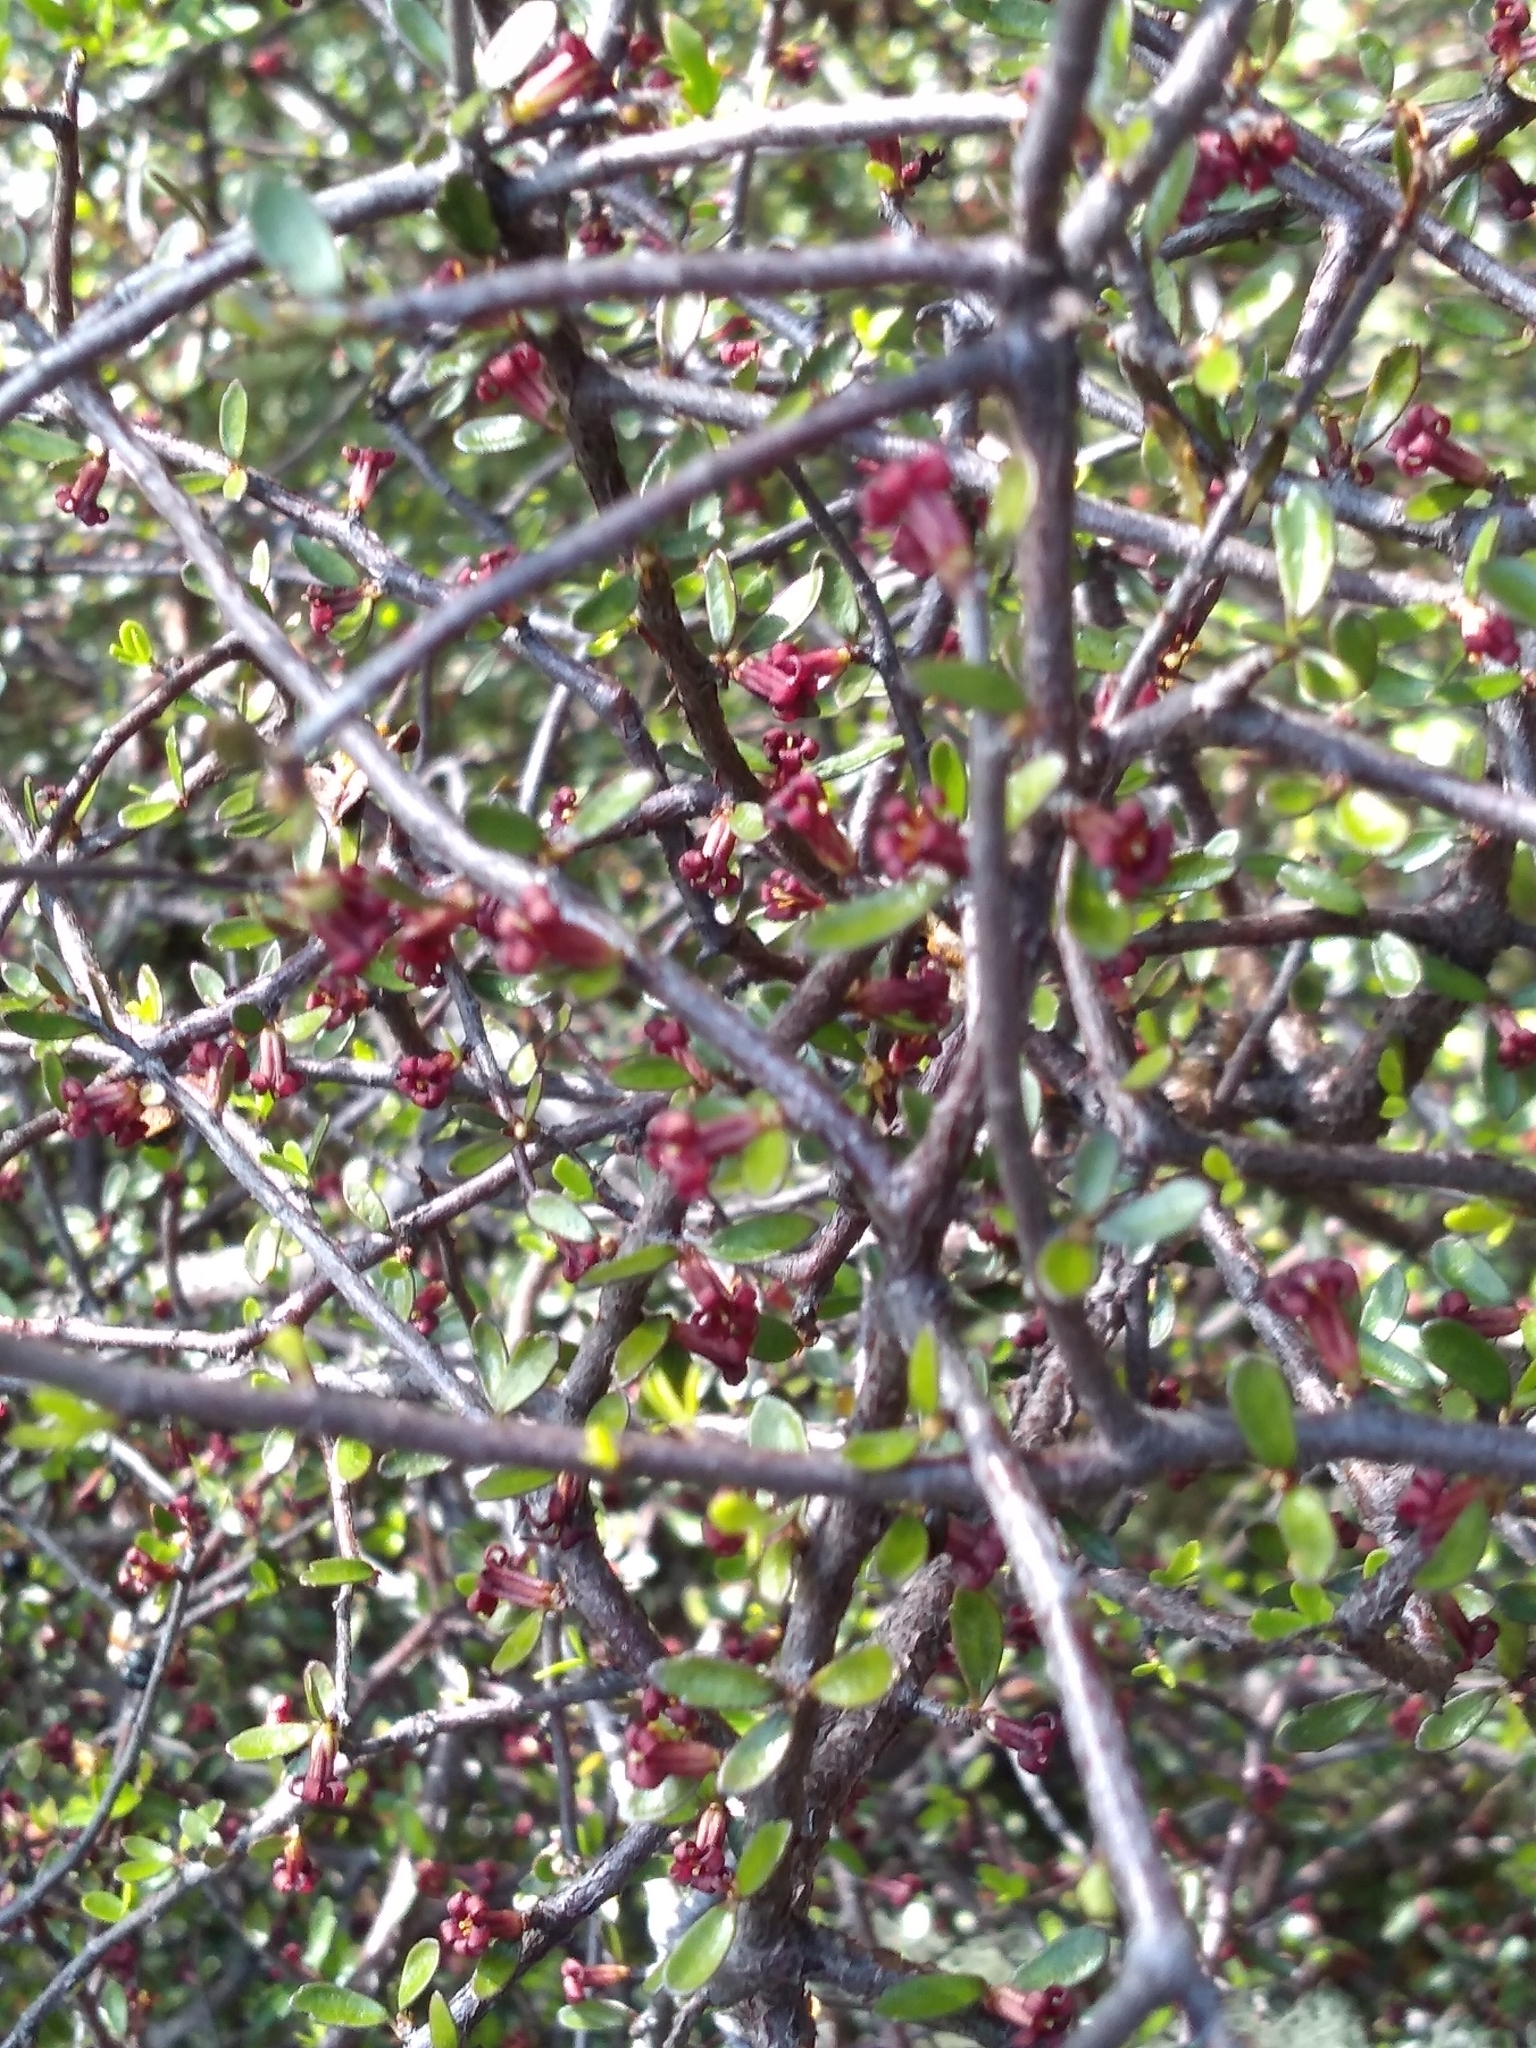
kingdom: Plantae
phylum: Tracheophyta
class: Magnoliopsida
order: Apiales
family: Pittosporaceae
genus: Pittosporum
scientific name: Pittosporum divaricatum
